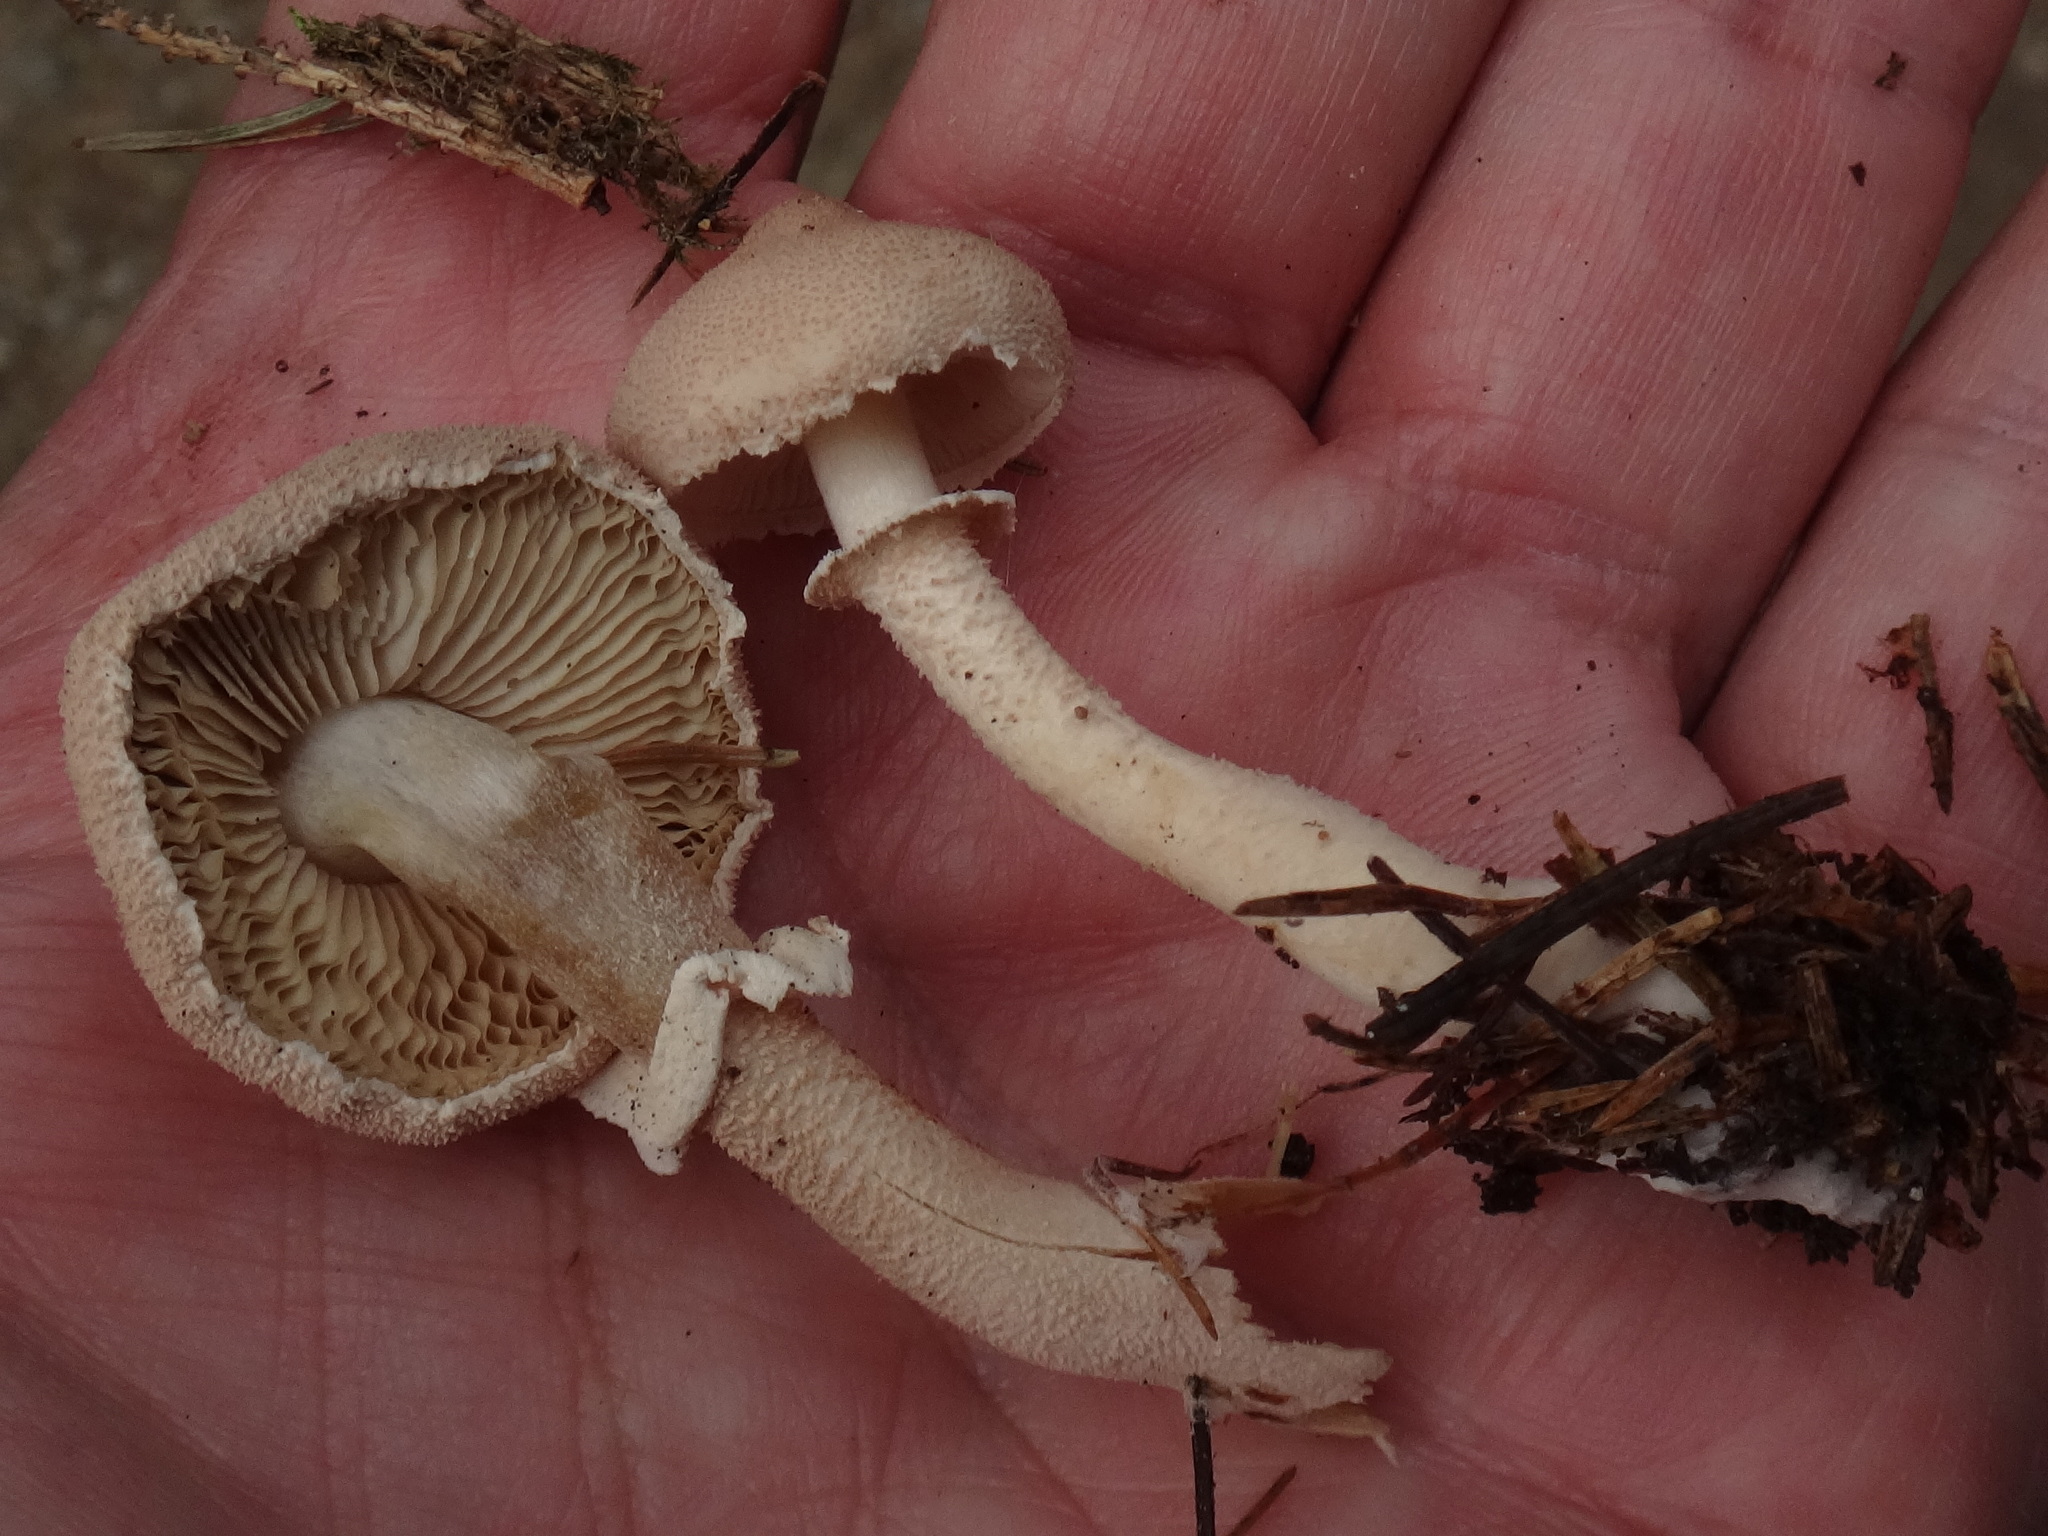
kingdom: Fungi
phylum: Basidiomycota
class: Agaricomycetes
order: Agaricales
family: Tricholomataceae
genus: Cystoderma
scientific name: Cystoderma carcharias
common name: Pearly powdercap
